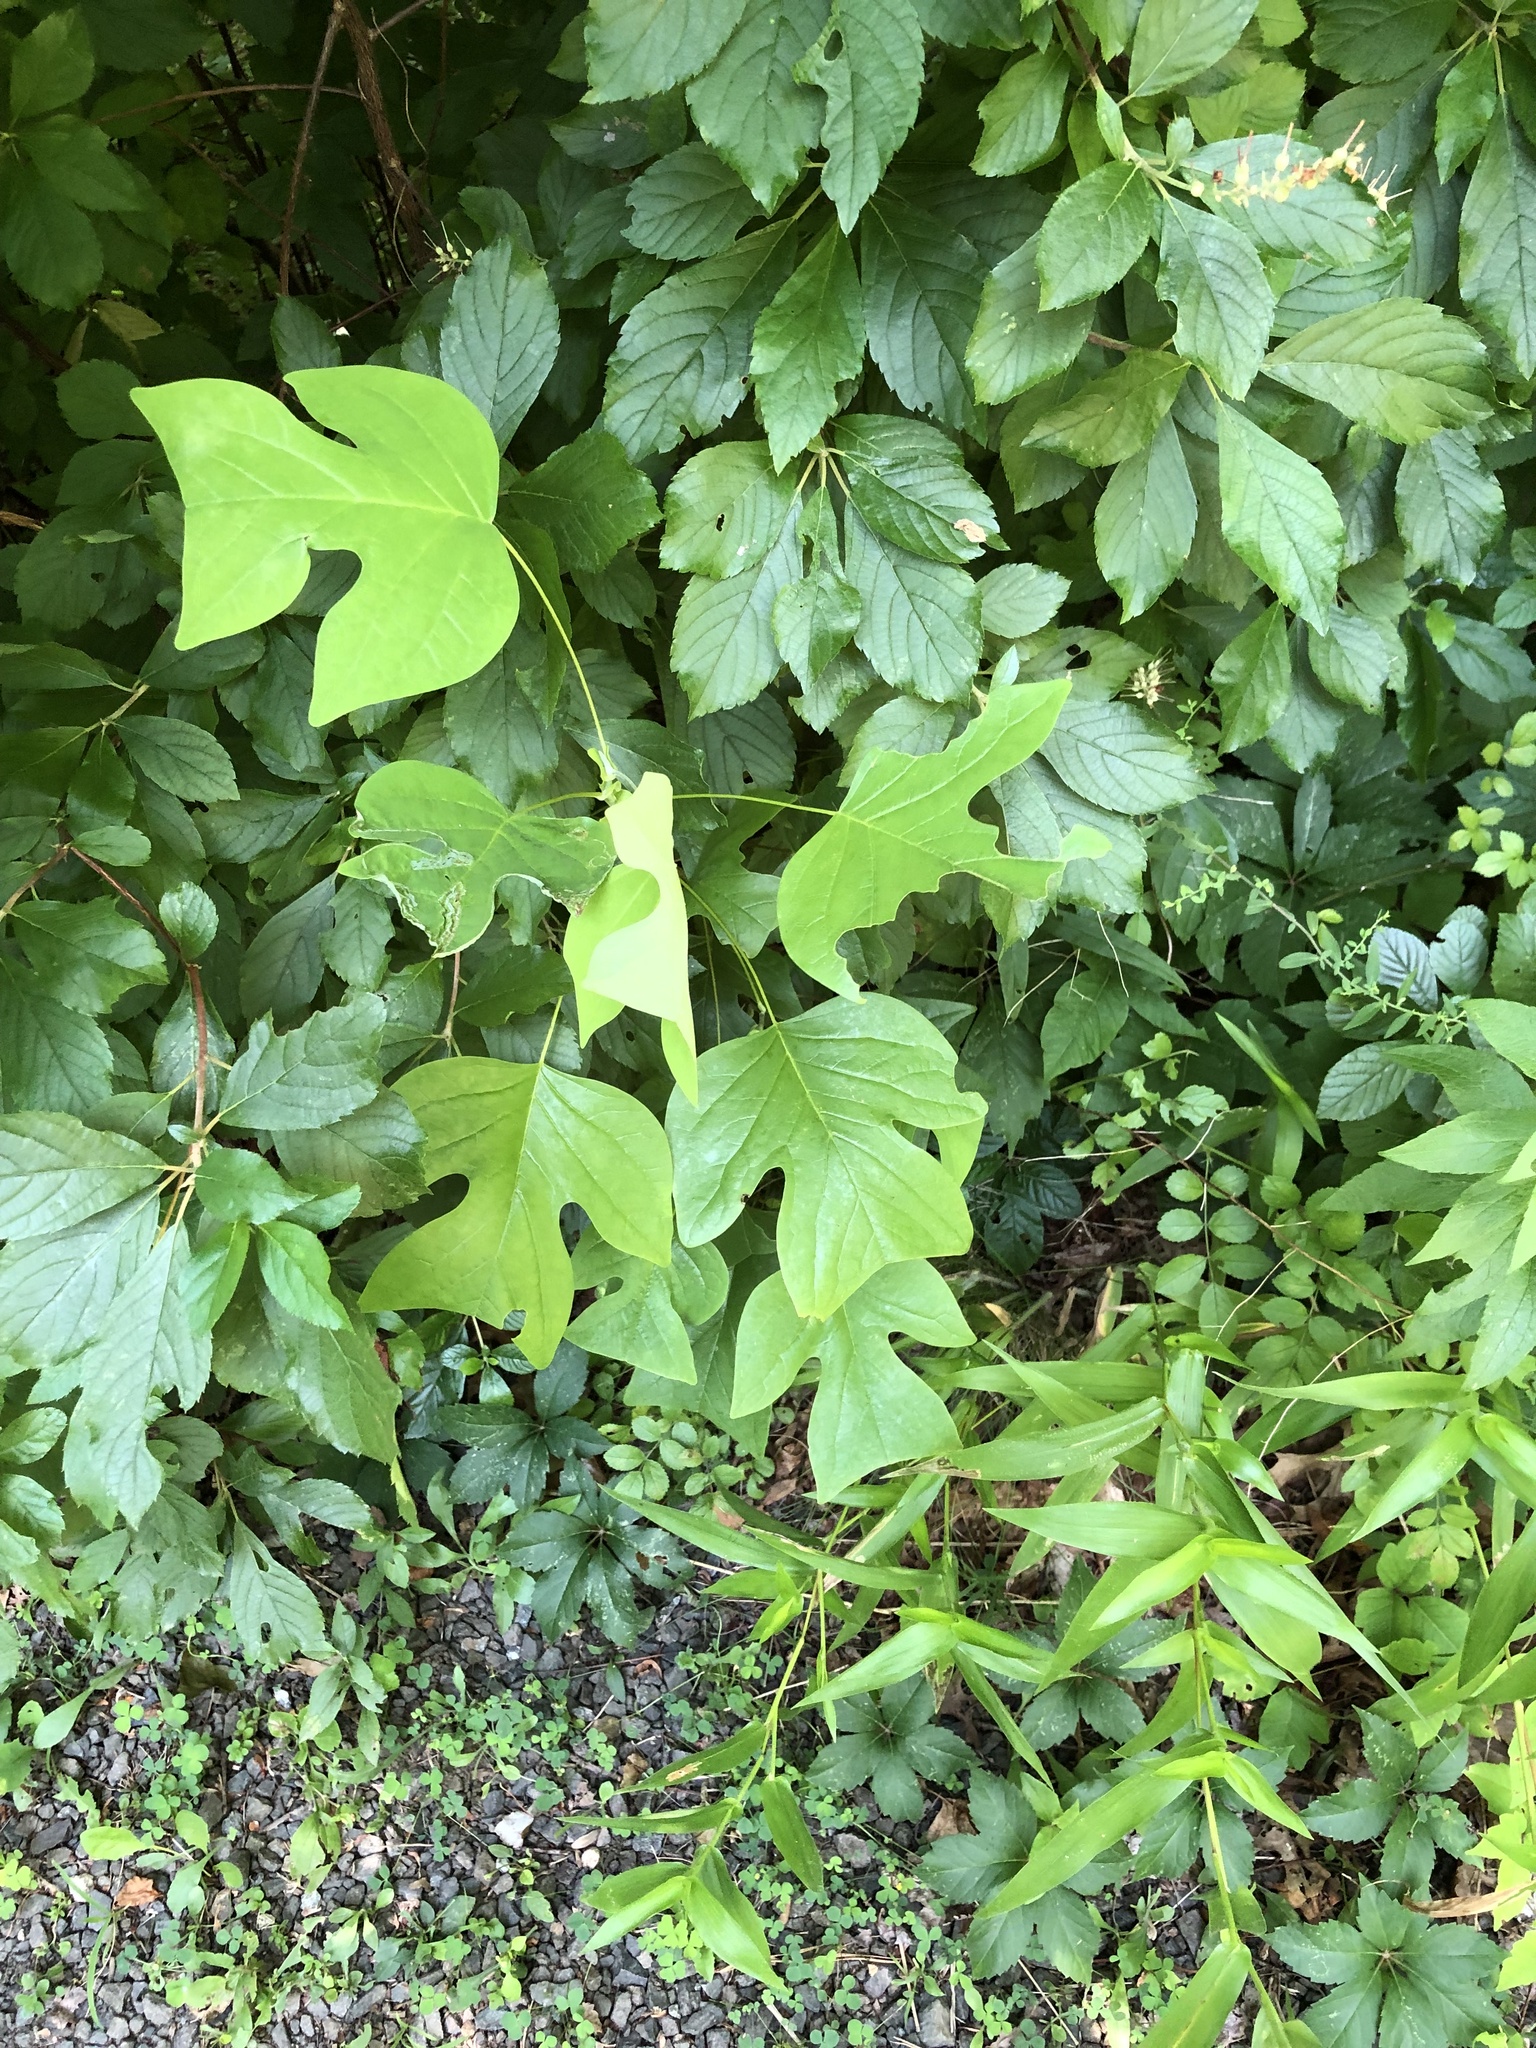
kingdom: Plantae
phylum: Tracheophyta
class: Magnoliopsida
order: Magnoliales
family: Magnoliaceae
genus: Liriodendron
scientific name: Liriodendron tulipifera
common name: Tulip tree
